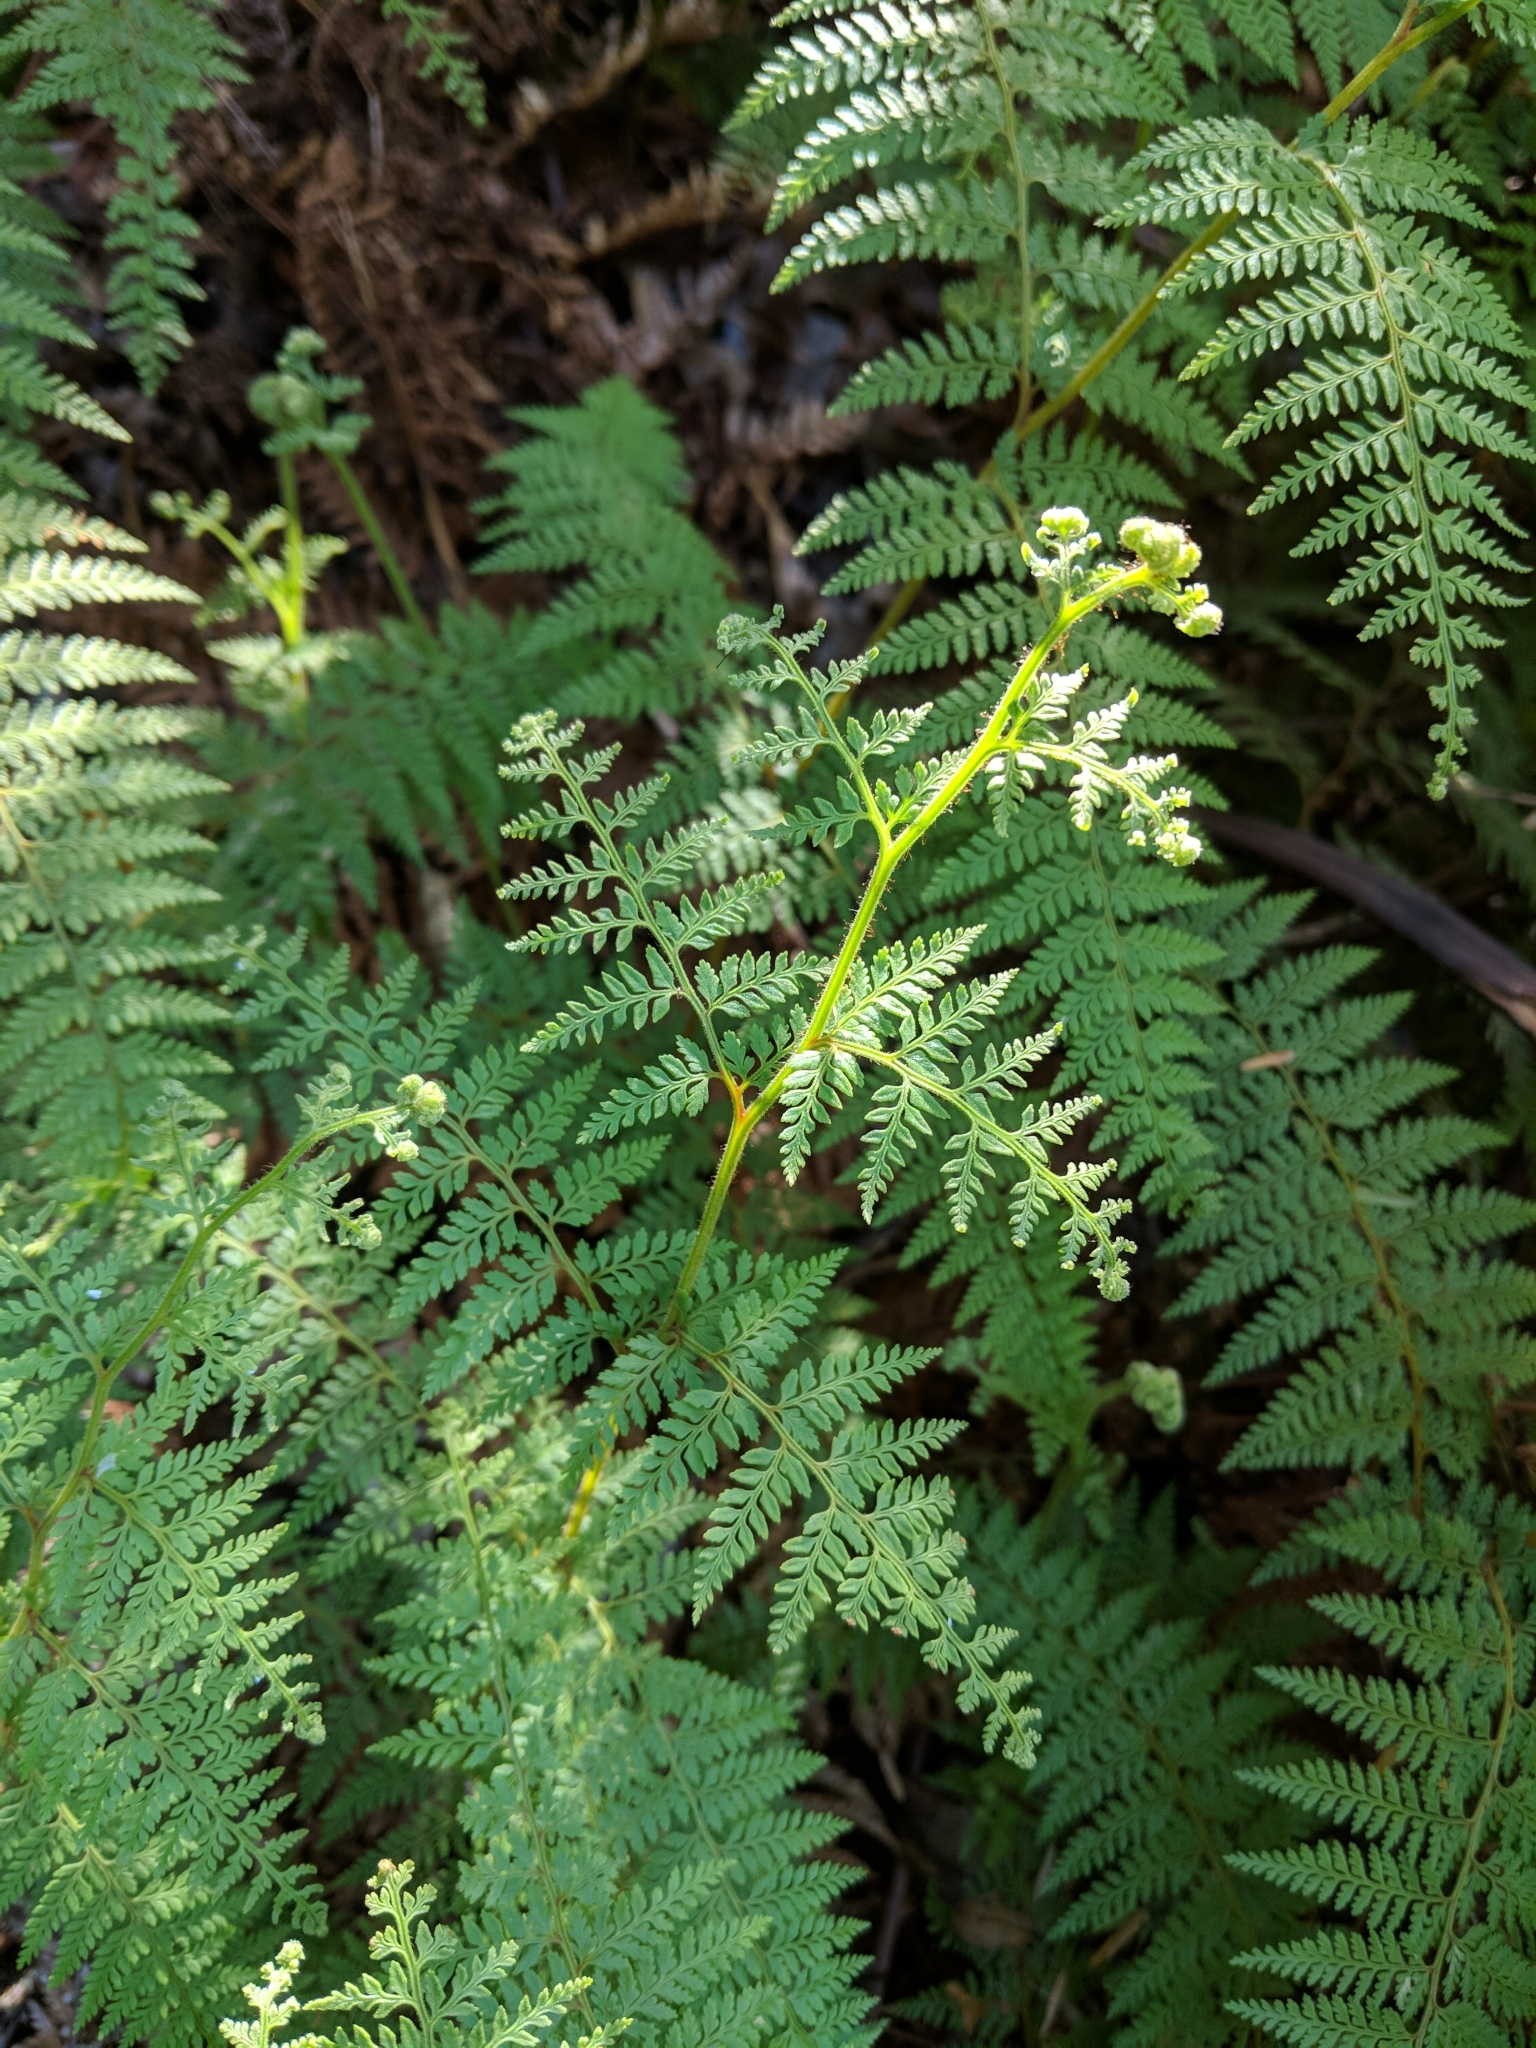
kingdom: Plantae
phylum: Tracheophyta
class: Polypodiopsida
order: Polypodiales
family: Dennstaedtiaceae
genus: Paesia
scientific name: Paesia scaberula
